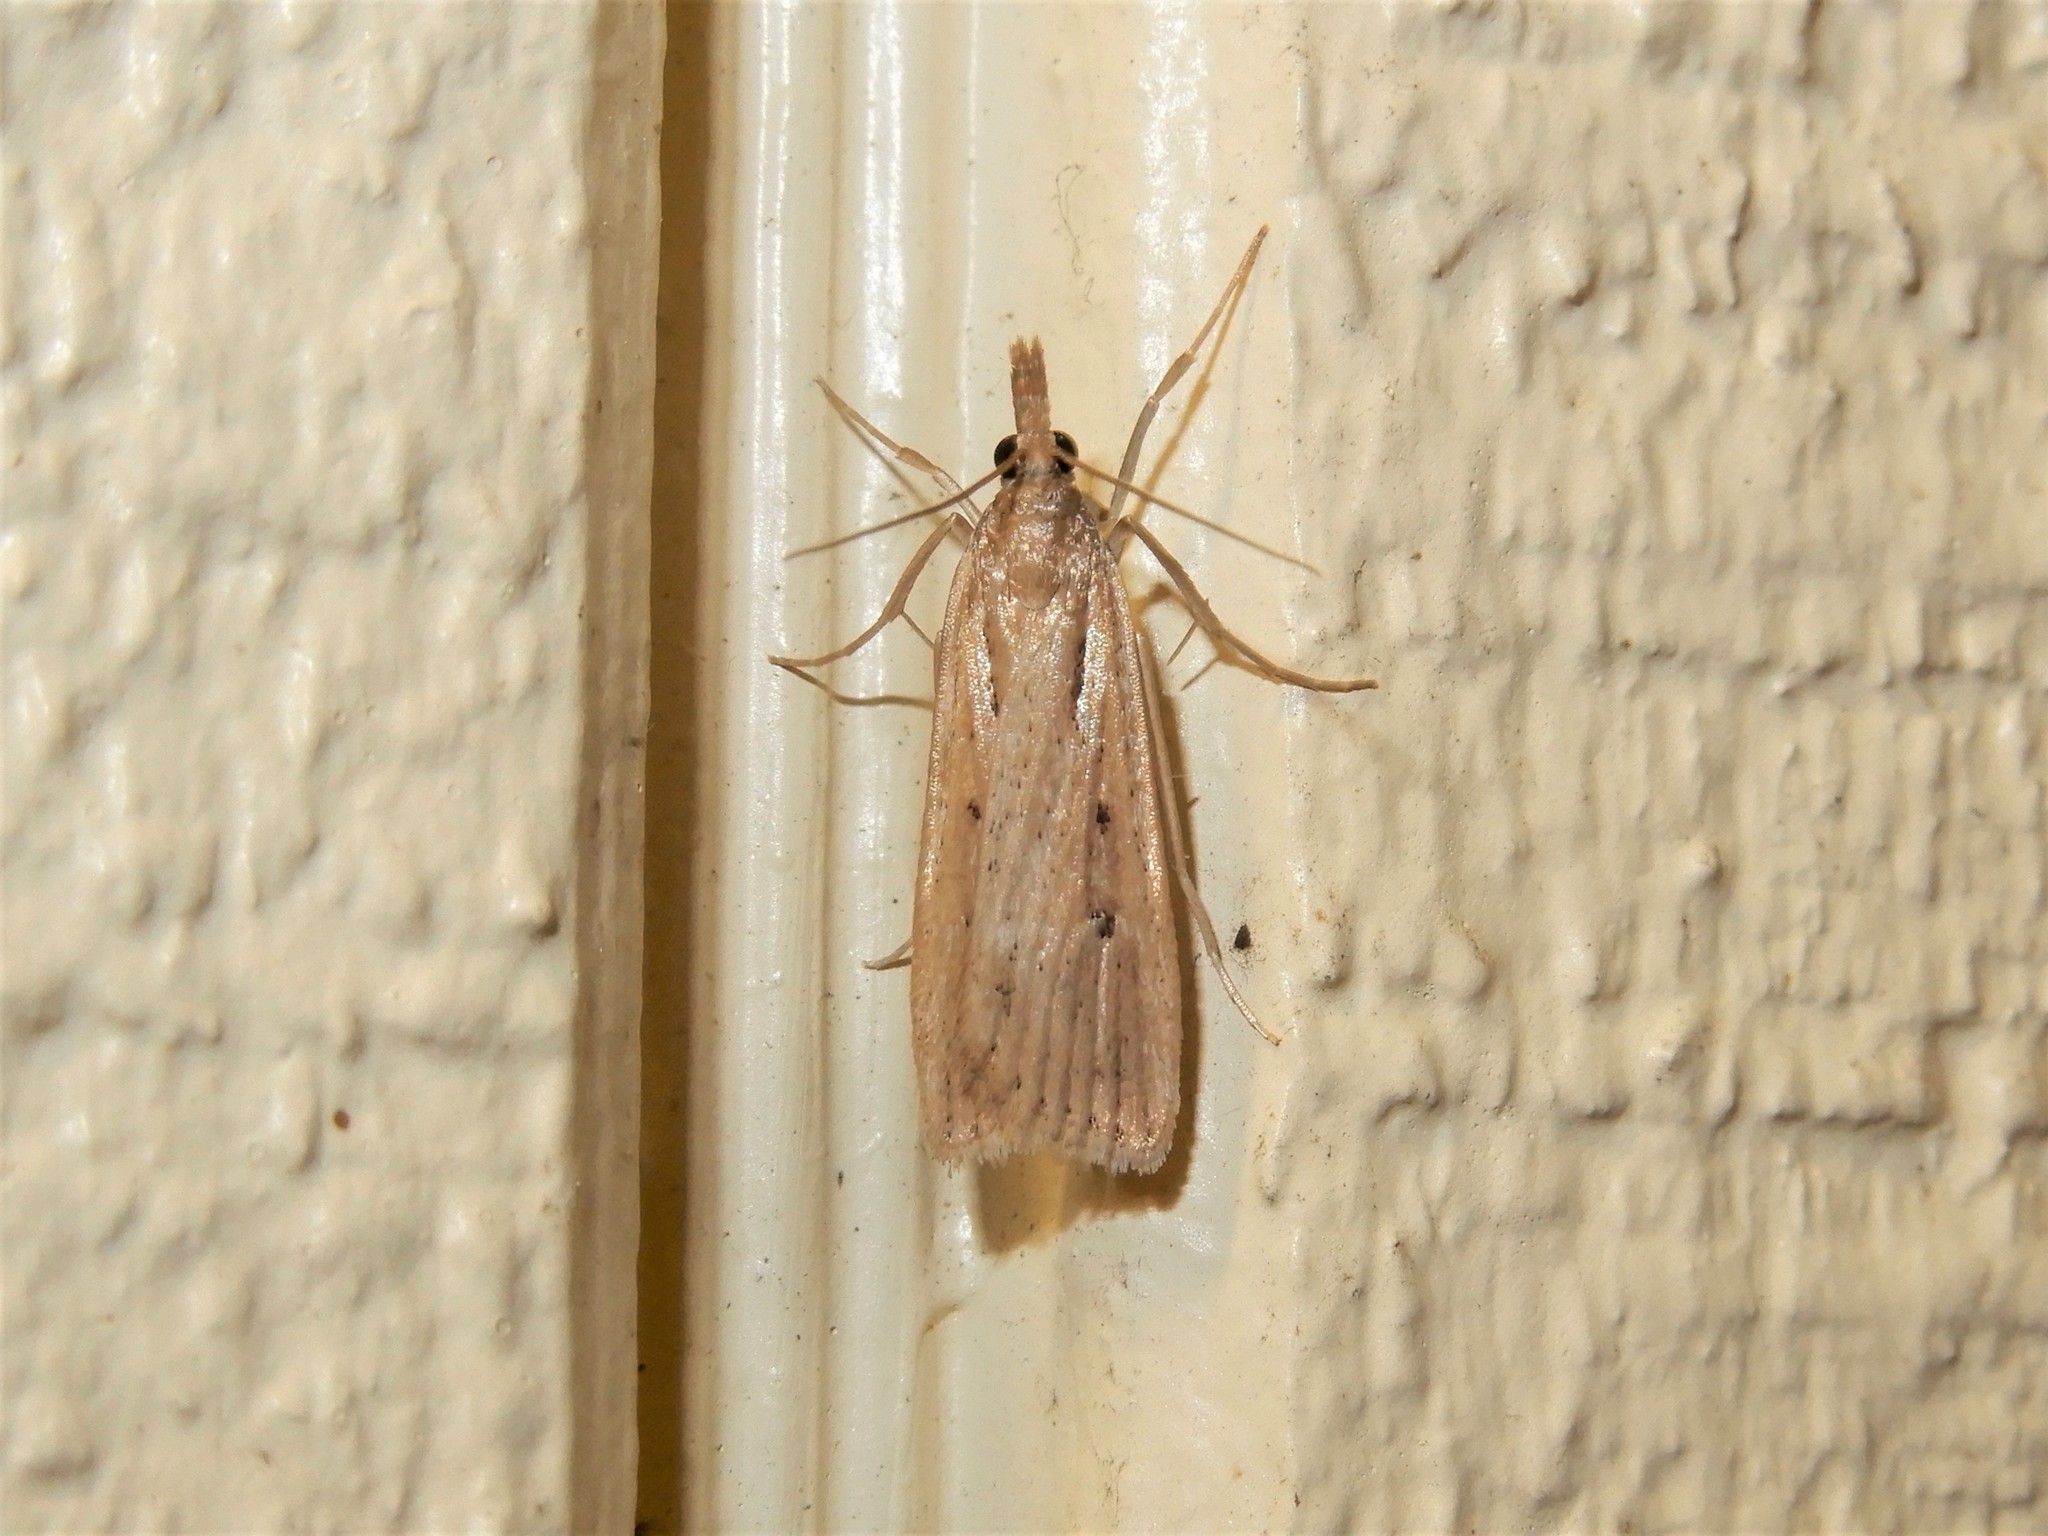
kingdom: Animalia
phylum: Arthropoda
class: Insecta
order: Lepidoptera
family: Crambidae
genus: Eudonia
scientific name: Eudonia sabulosella
